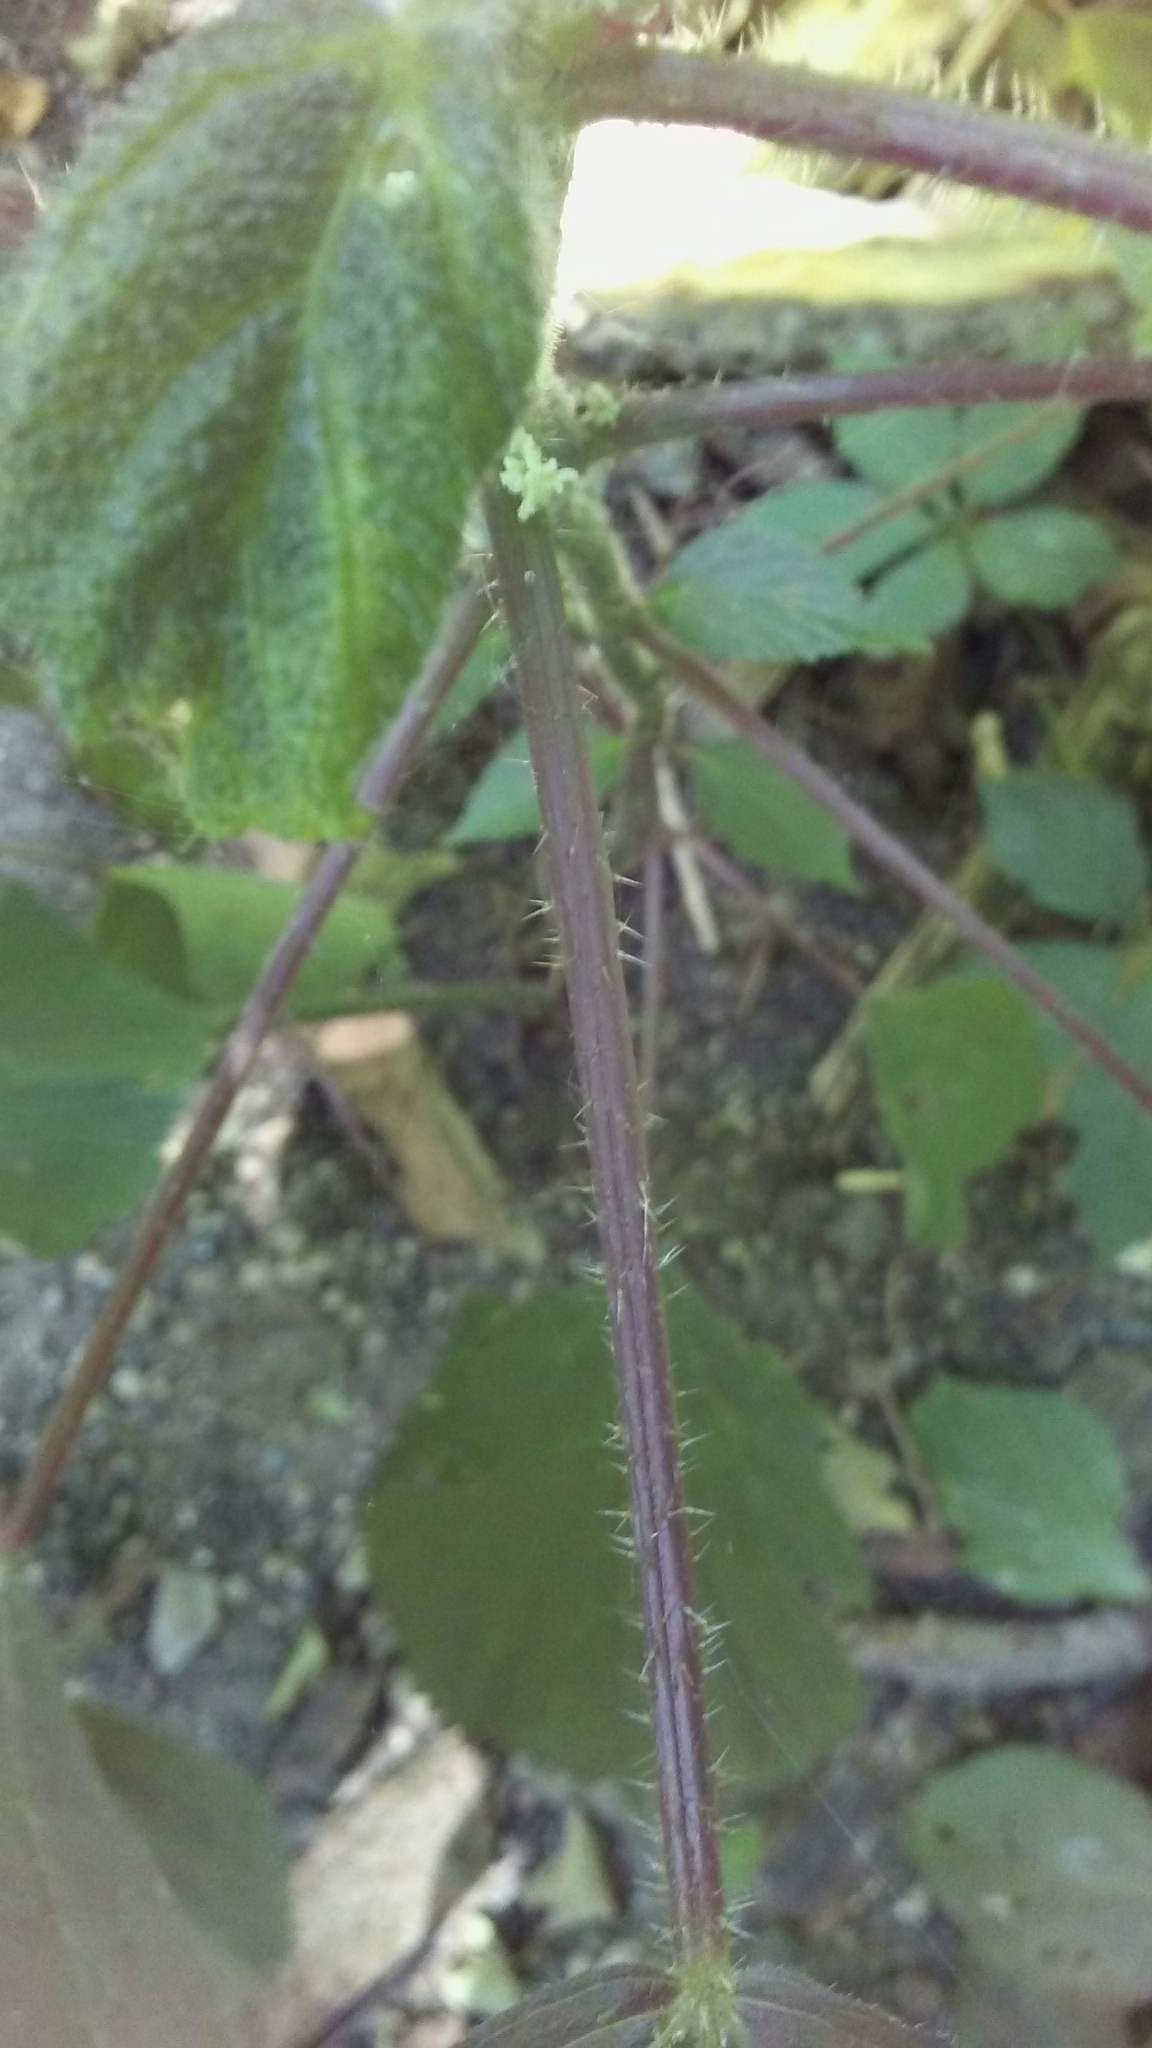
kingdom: Plantae
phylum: Tracheophyta
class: Magnoliopsida
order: Rosales
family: Urticaceae
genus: Laportea
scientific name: Laportea canadensis
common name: Canada nettle
